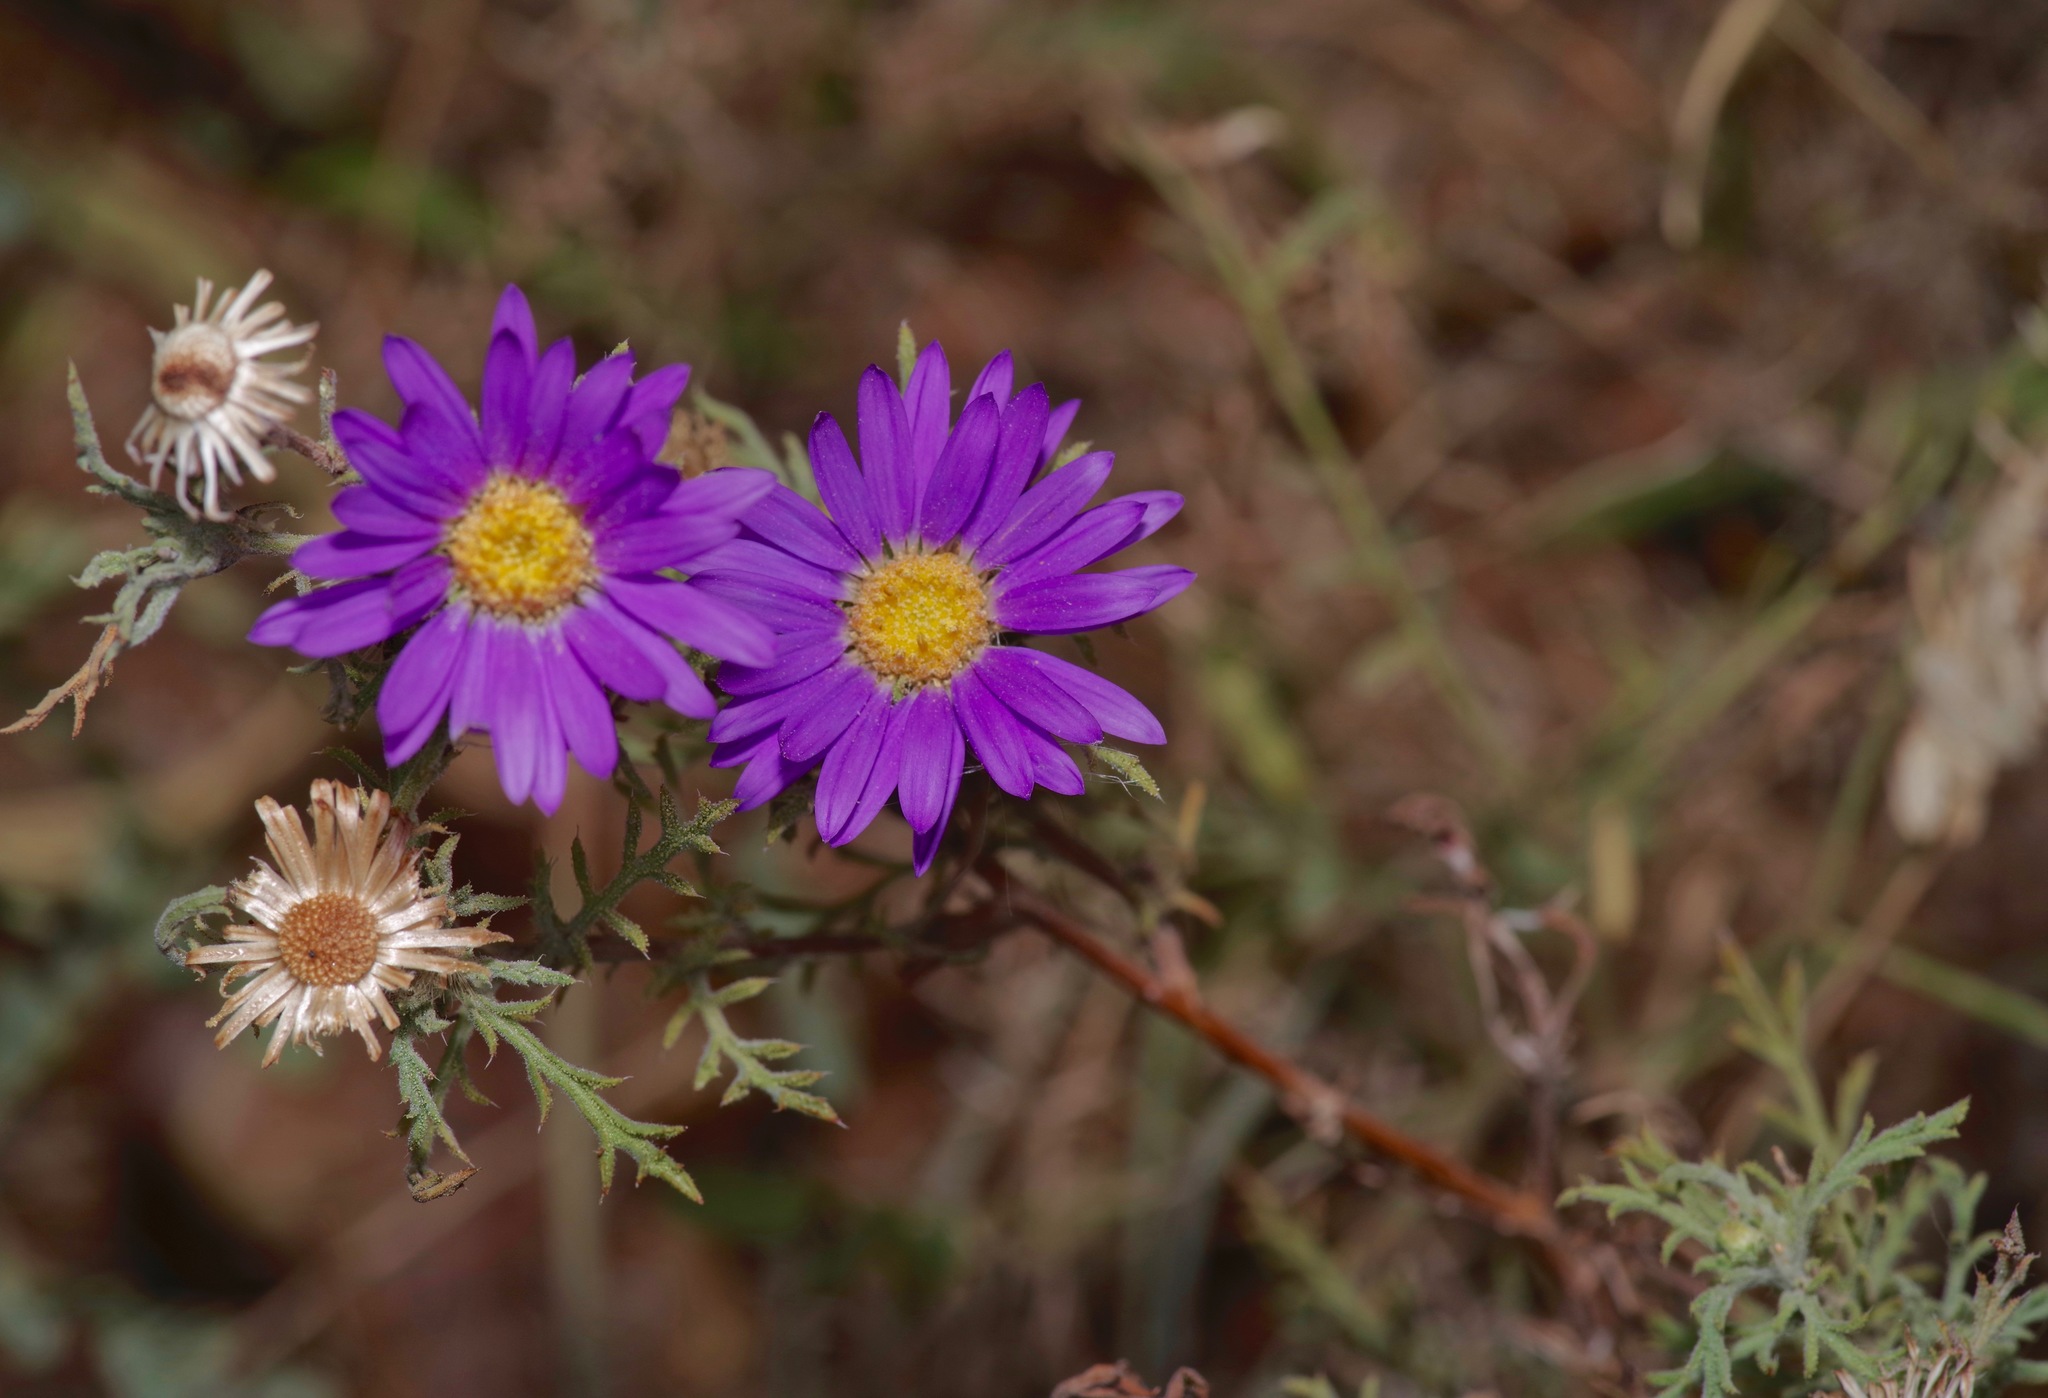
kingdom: Plantae
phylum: Tracheophyta
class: Magnoliopsida
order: Asterales
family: Asteraceae
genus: Machaeranthera
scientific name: Machaeranthera tanacetifolia
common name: Tansy-aster
